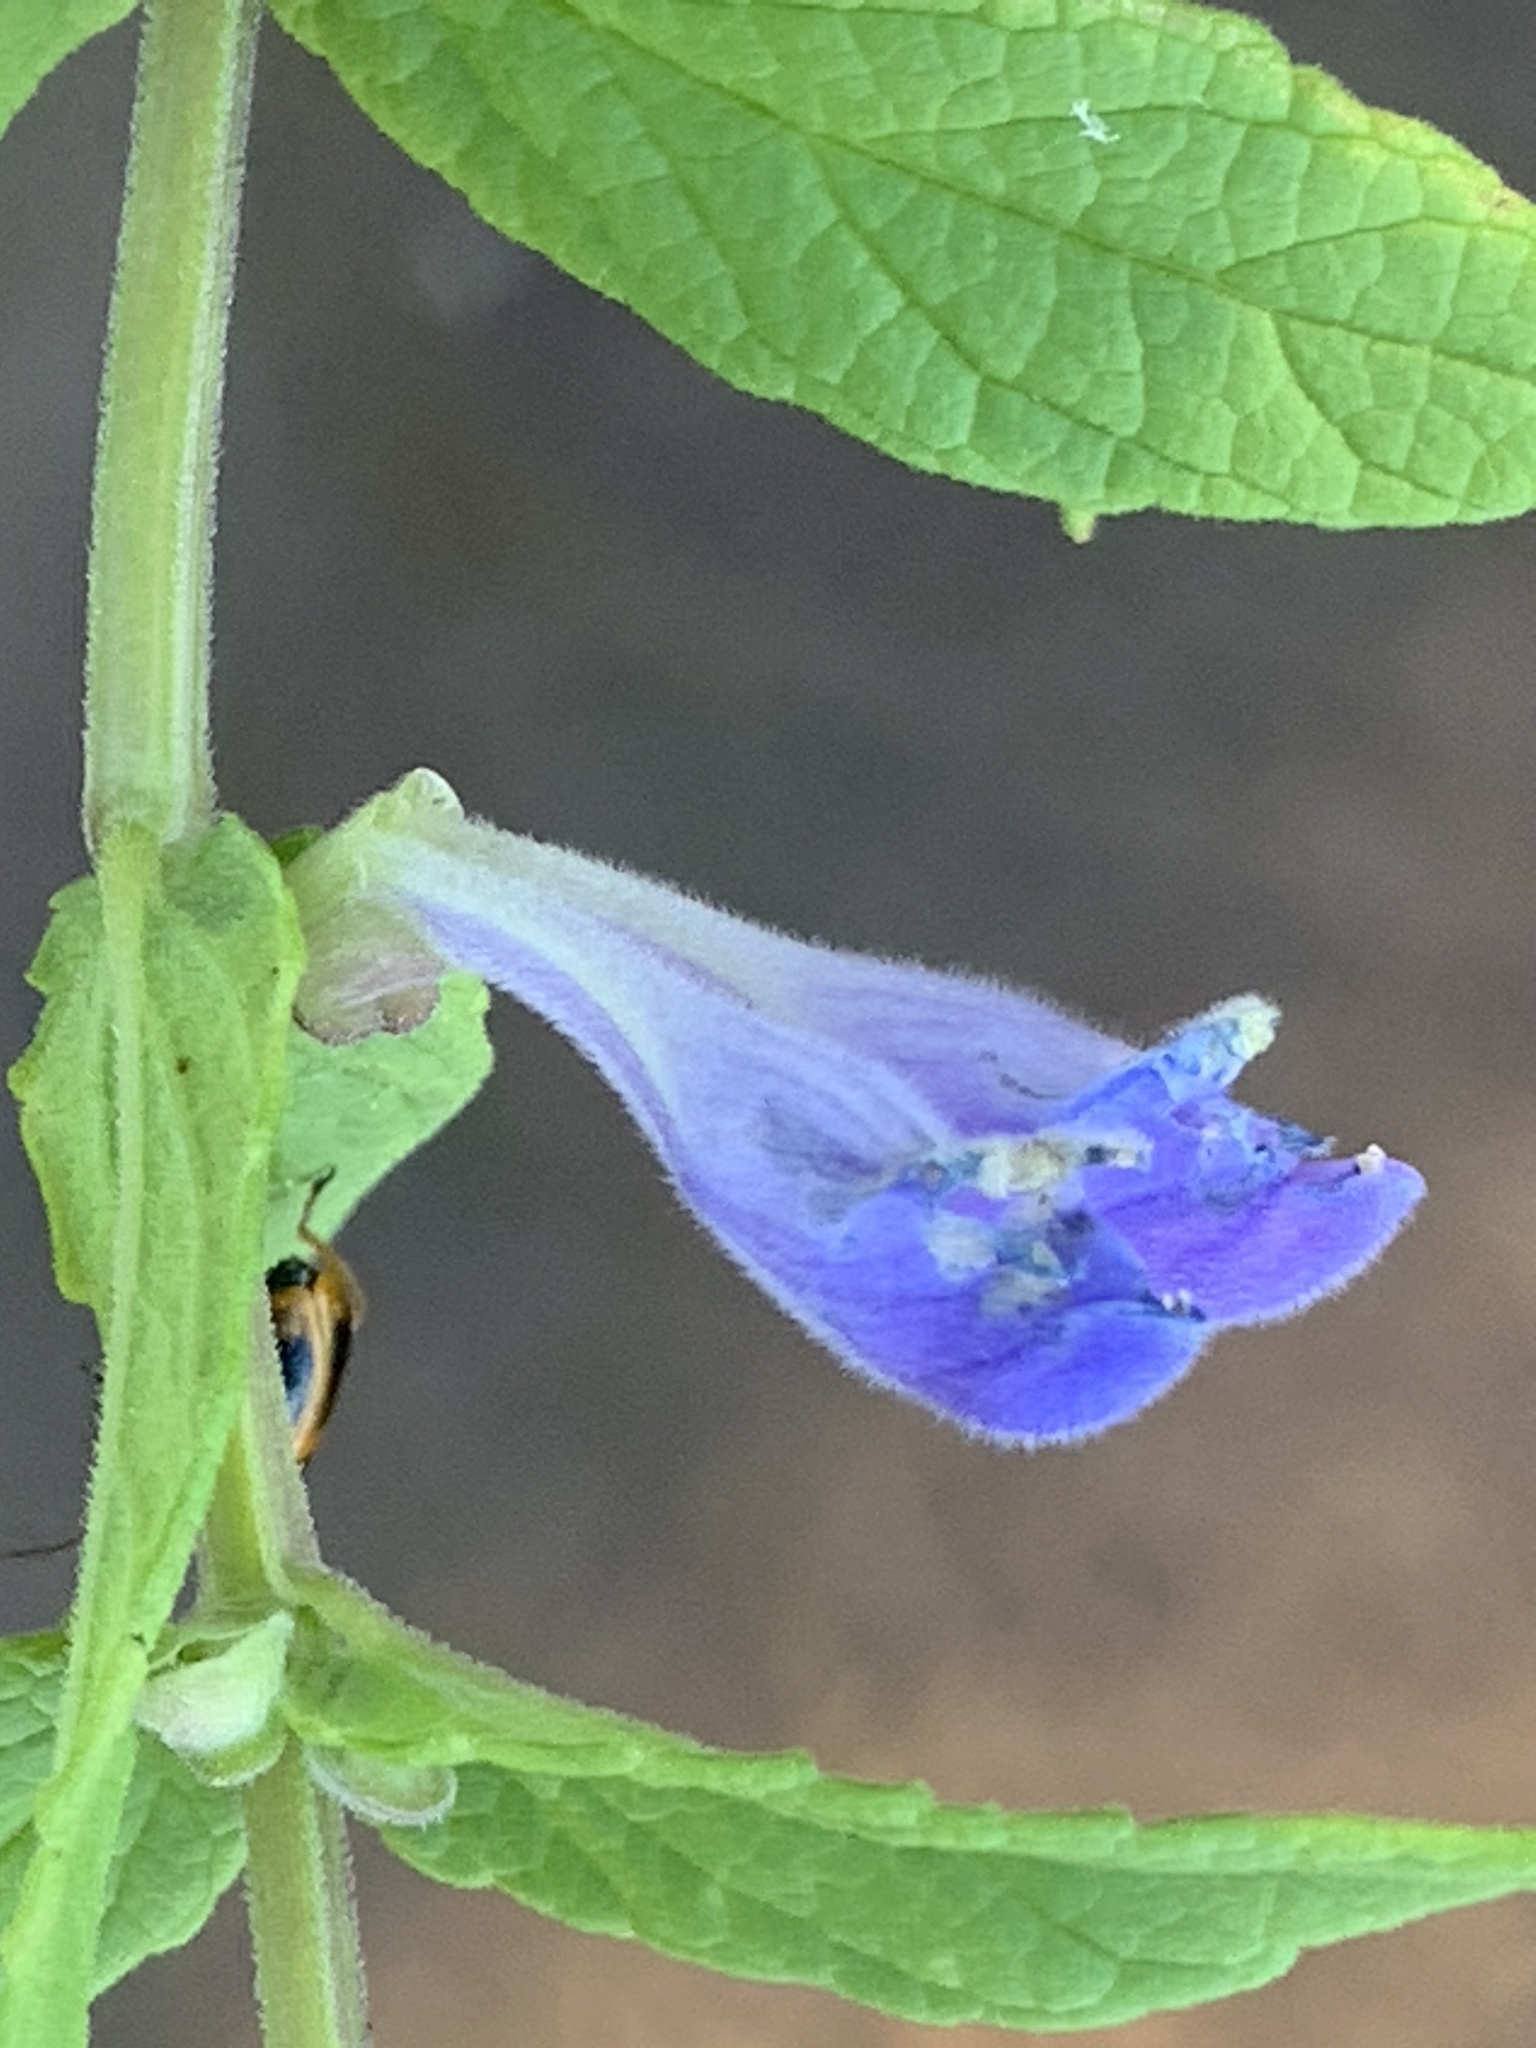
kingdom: Plantae
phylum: Tracheophyta
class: Magnoliopsida
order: Lamiales
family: Lamiaceae
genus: Scutellaria
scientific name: Scutellaria galericulata
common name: Skullcap
